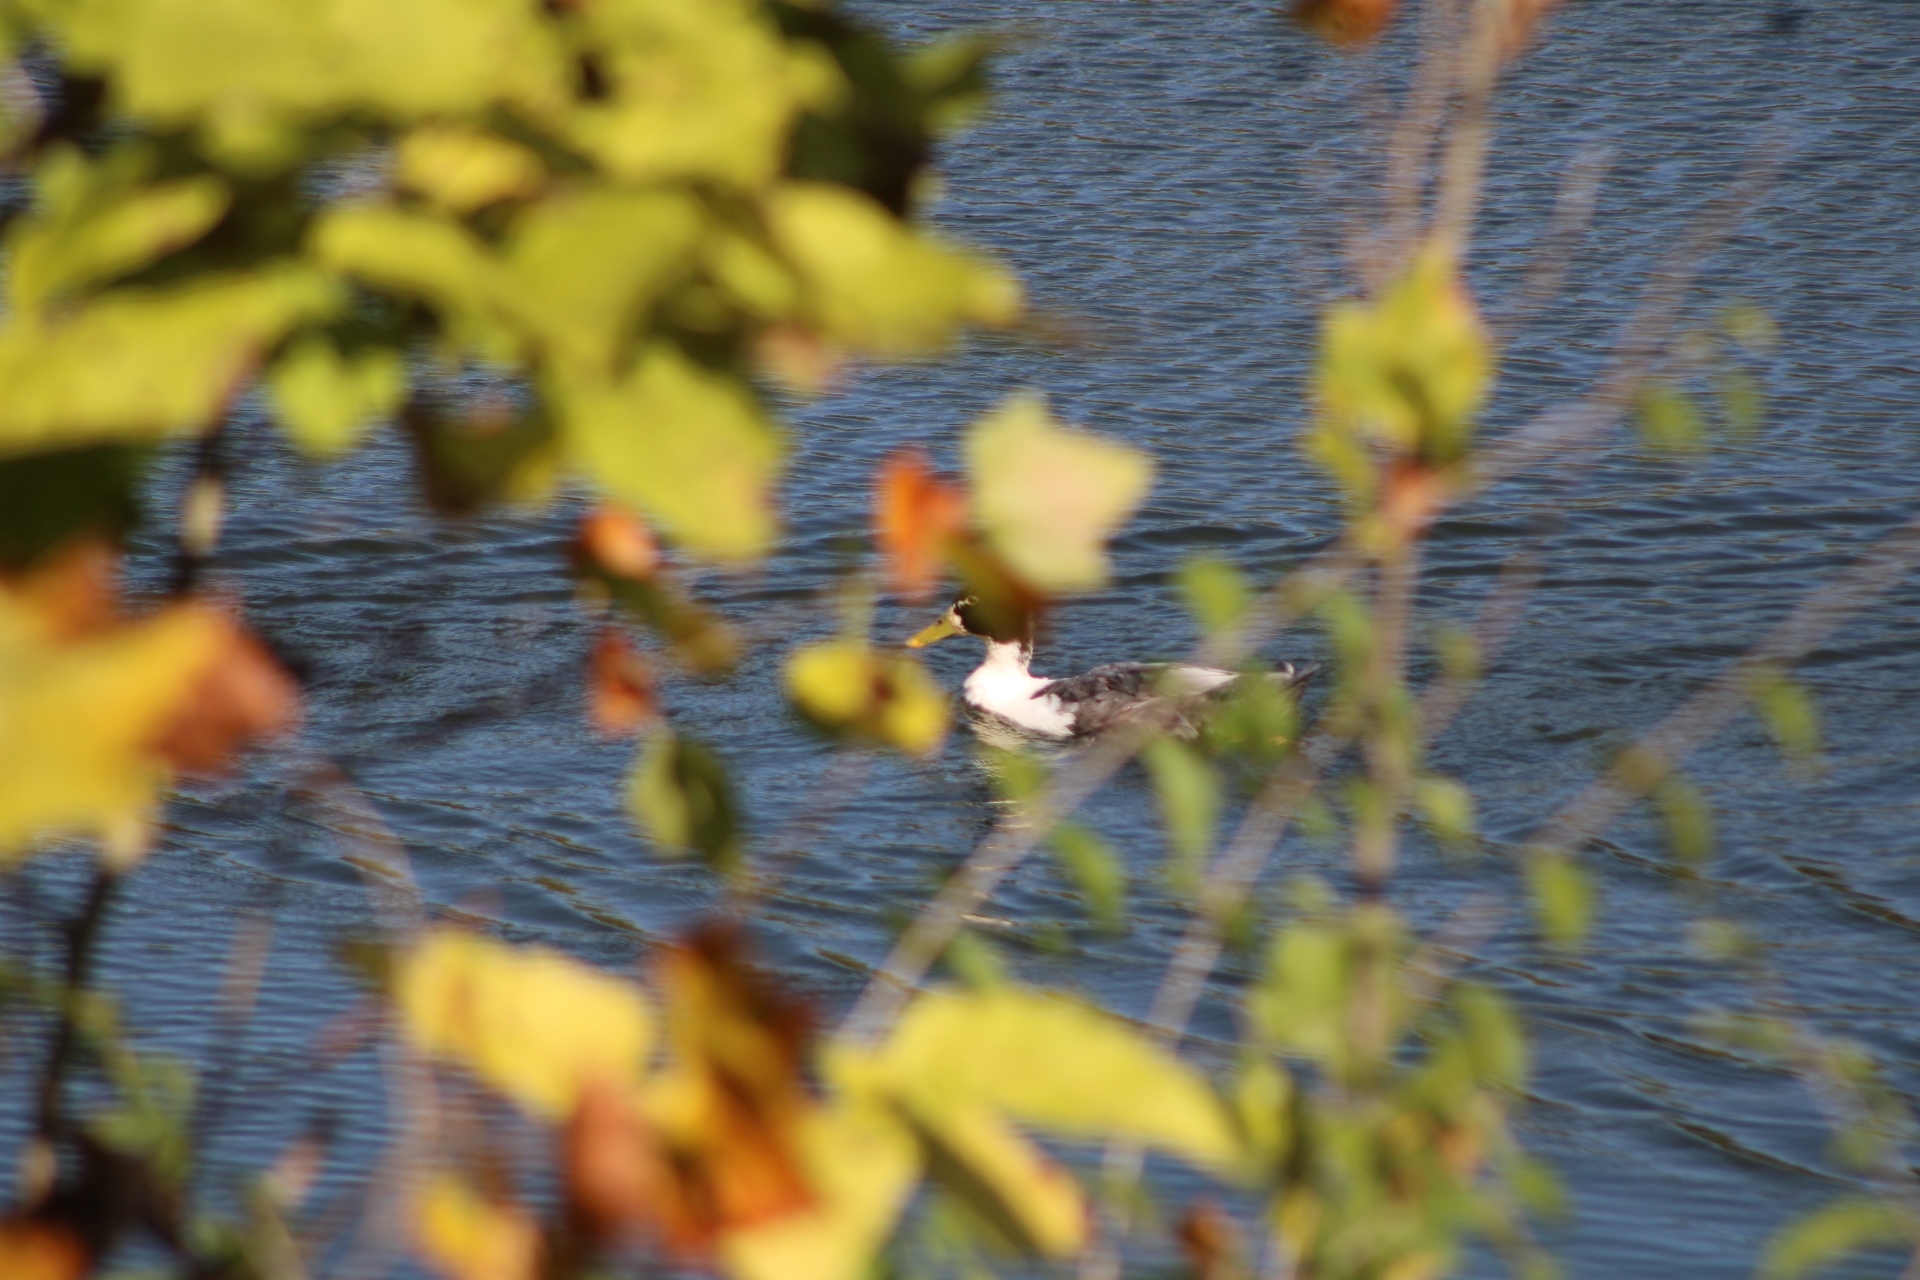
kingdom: Animalia
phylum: Chordata
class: Aves
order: Anseriformes
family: Anatidae
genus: Anas
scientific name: Anas platyrhynchos
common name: Mallard
